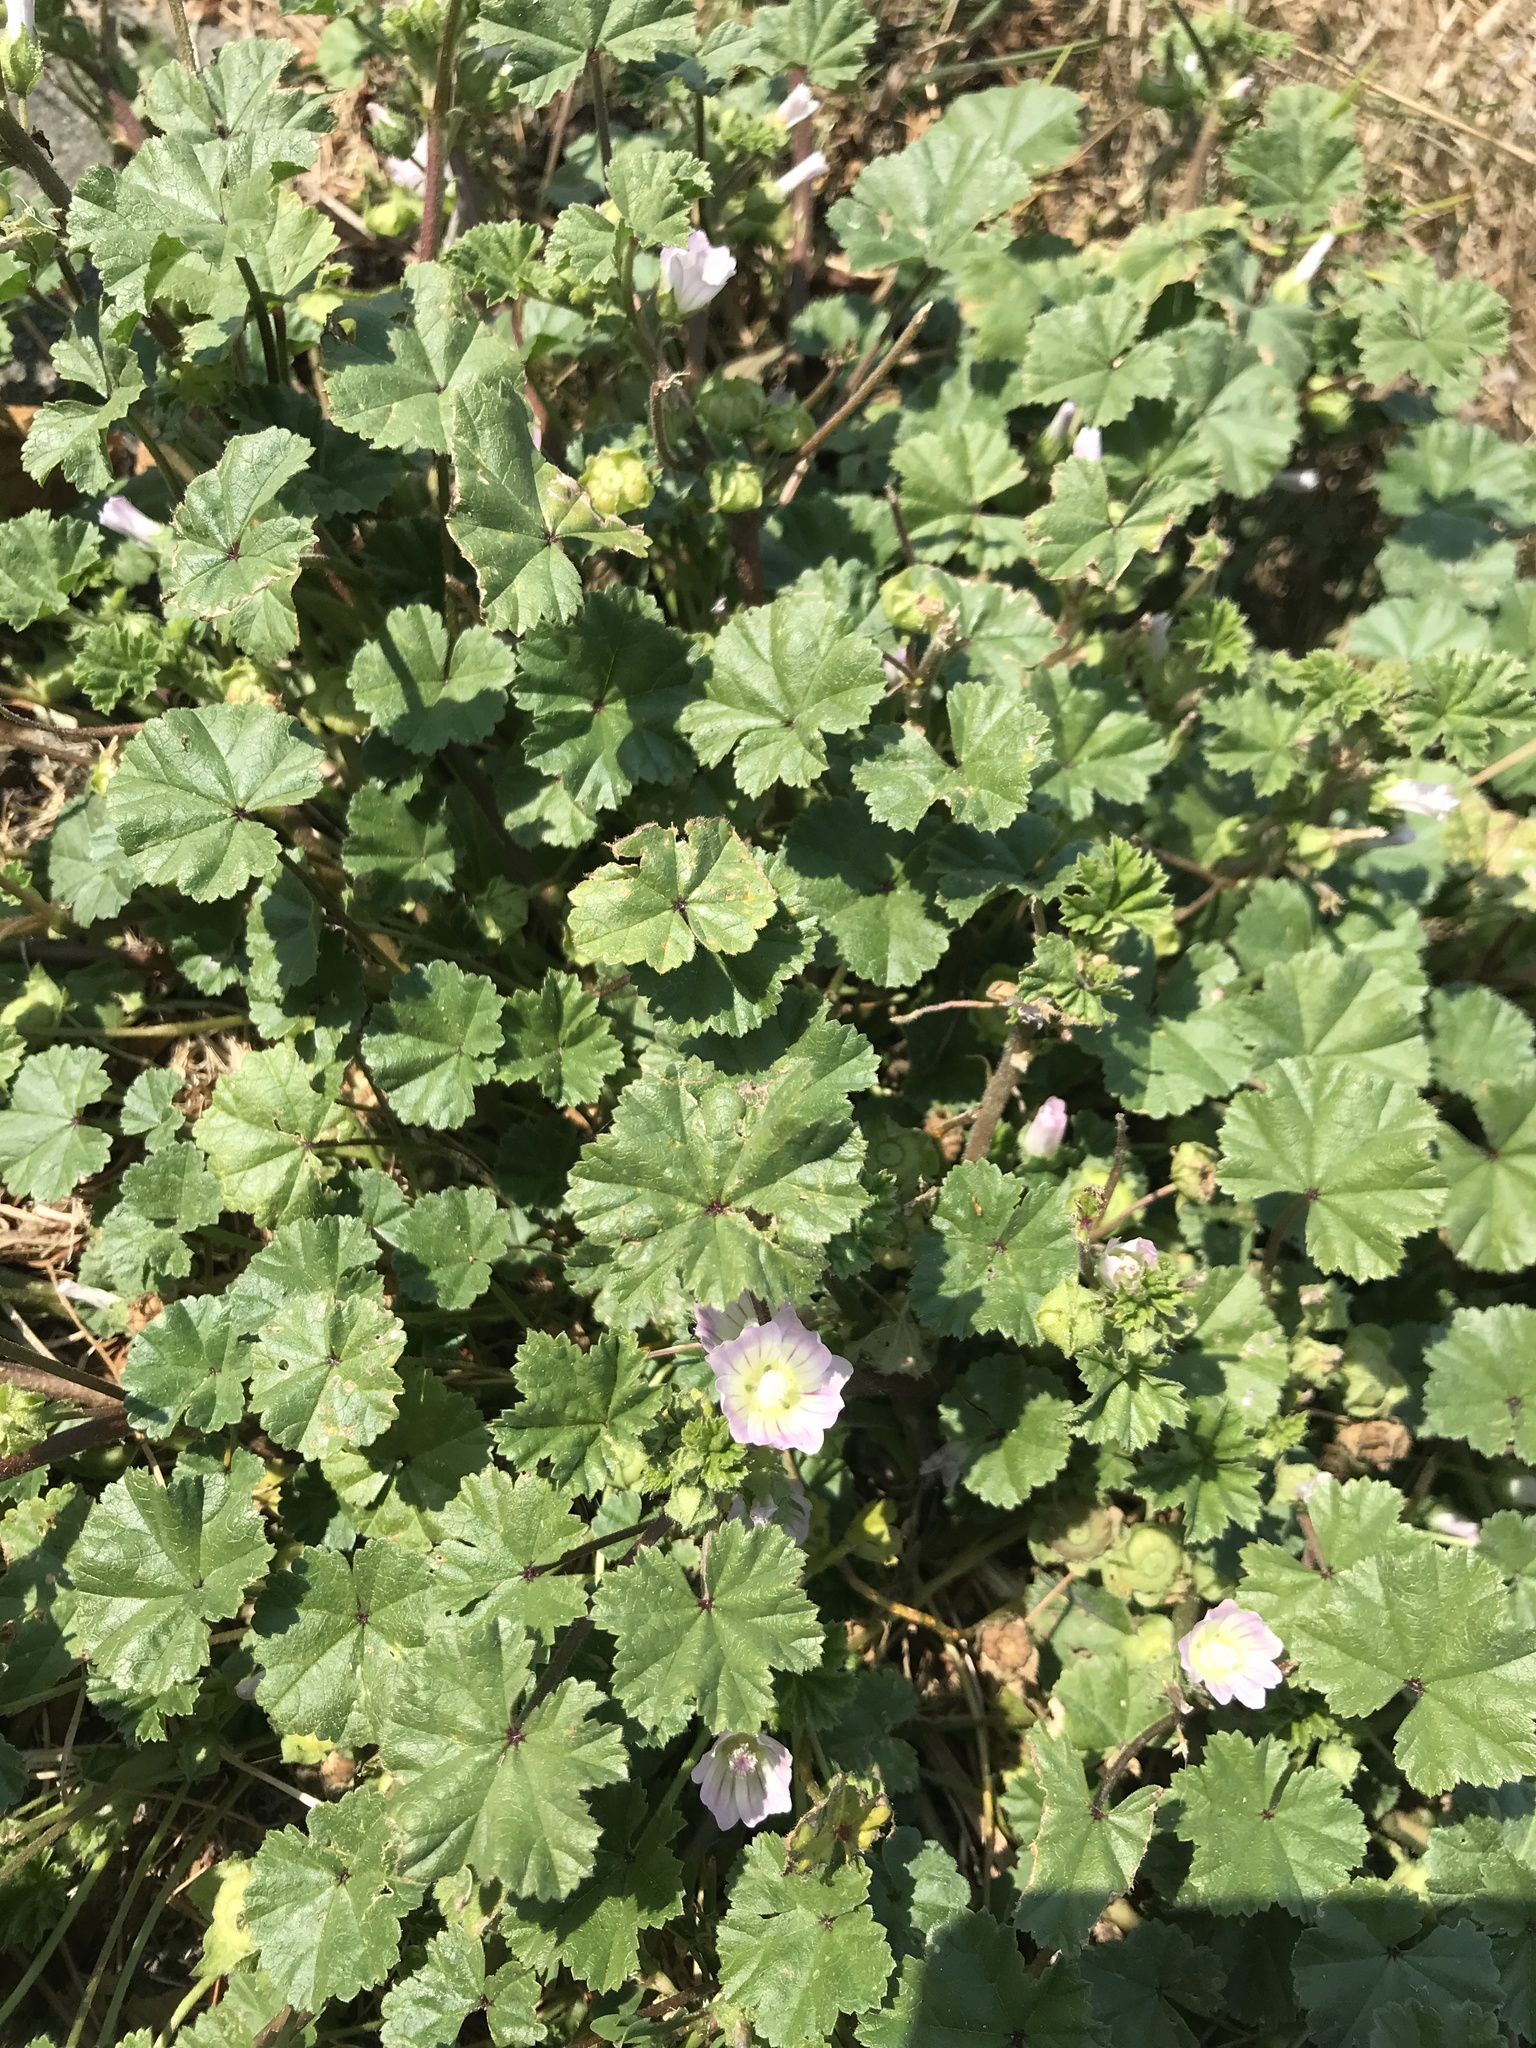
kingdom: Plantae
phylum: Tracheophyta
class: Magnoliopsida
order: Malvales
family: Malvaceae
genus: Malva
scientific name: Malva neglecta
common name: Common mallow
